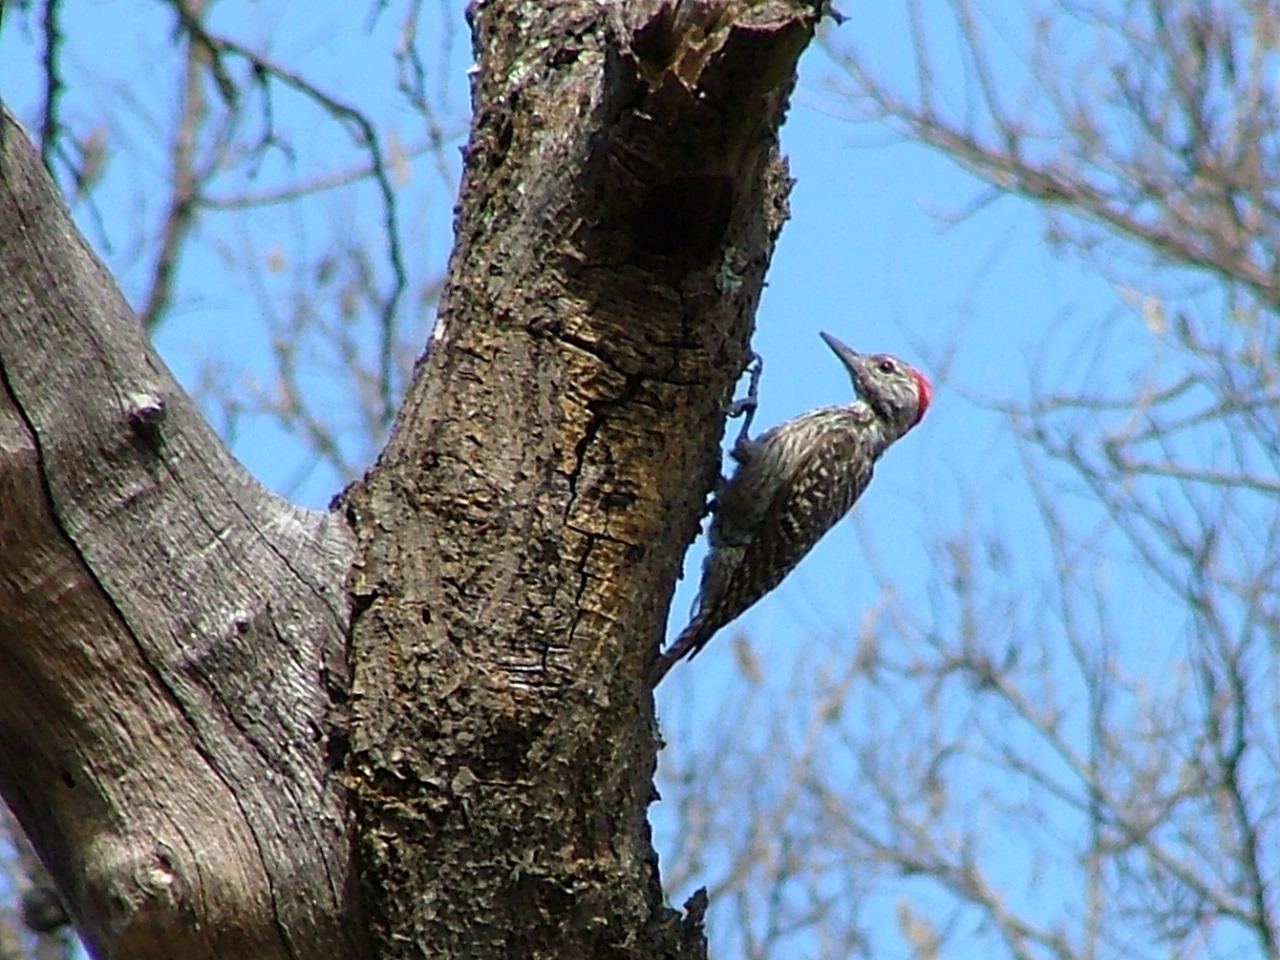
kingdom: Animalia
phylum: Chordata
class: Aves
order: Piciformes
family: Picidae
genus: Dendropicos
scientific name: Dendropicos fuscescens
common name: Cardinal woodpecker
